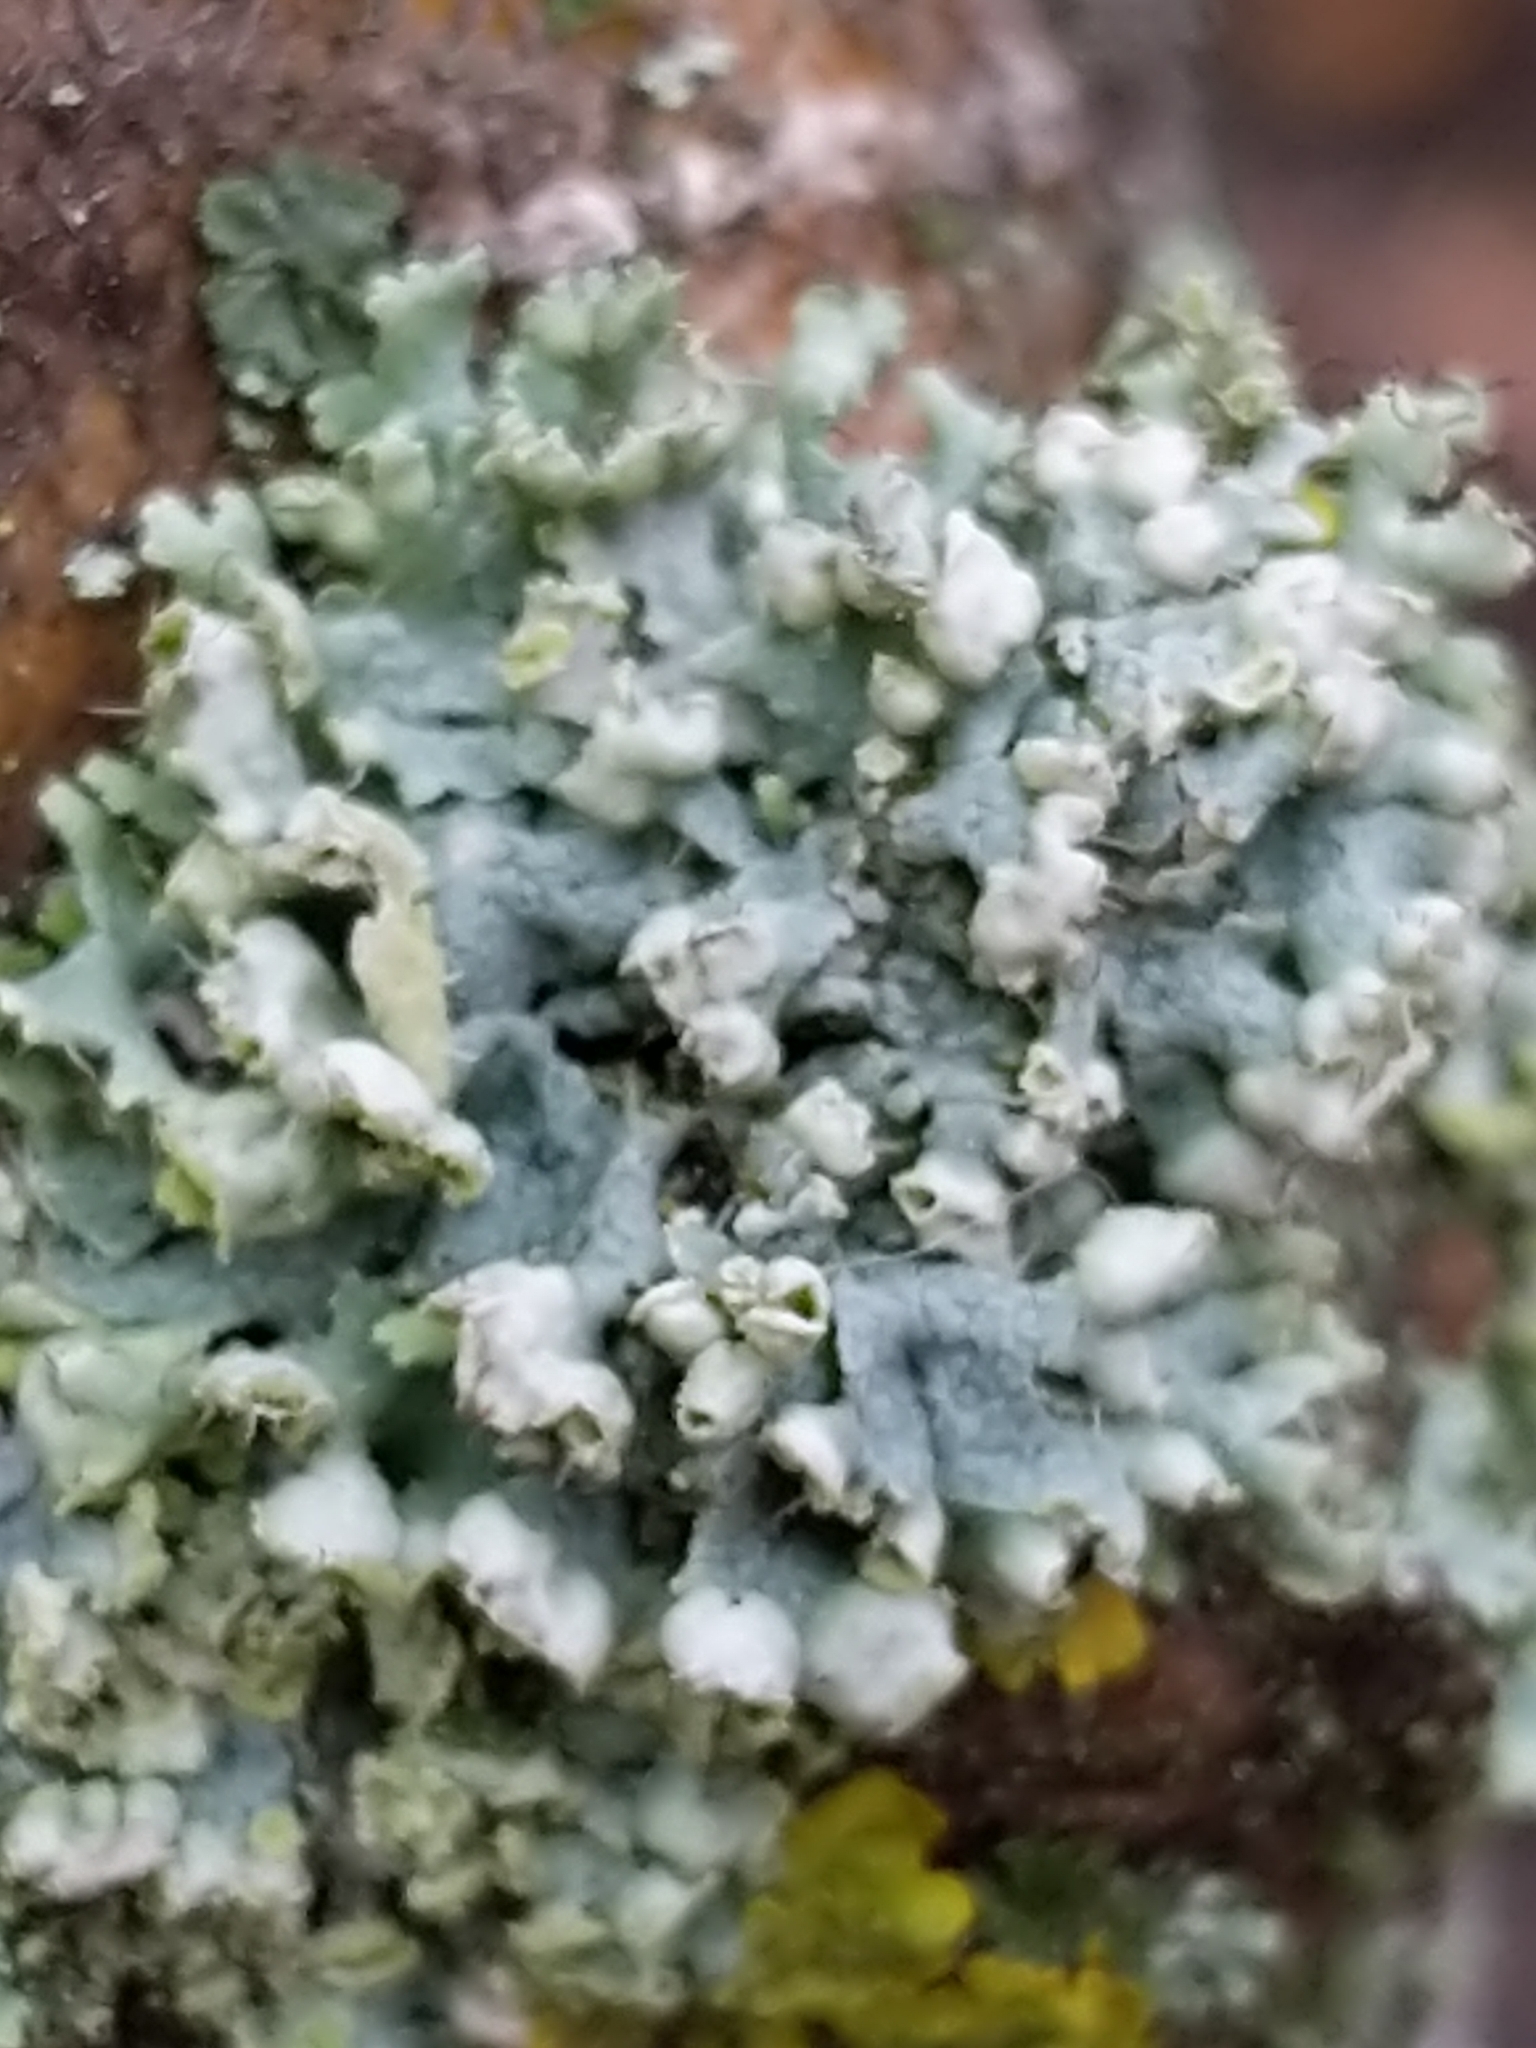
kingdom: Fungi
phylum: Ascomycota
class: Lecanoromycetes
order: Caliciales
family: Physciaceae
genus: Physcia
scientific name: Physcia adscendens
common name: Hooded rosette lichen
